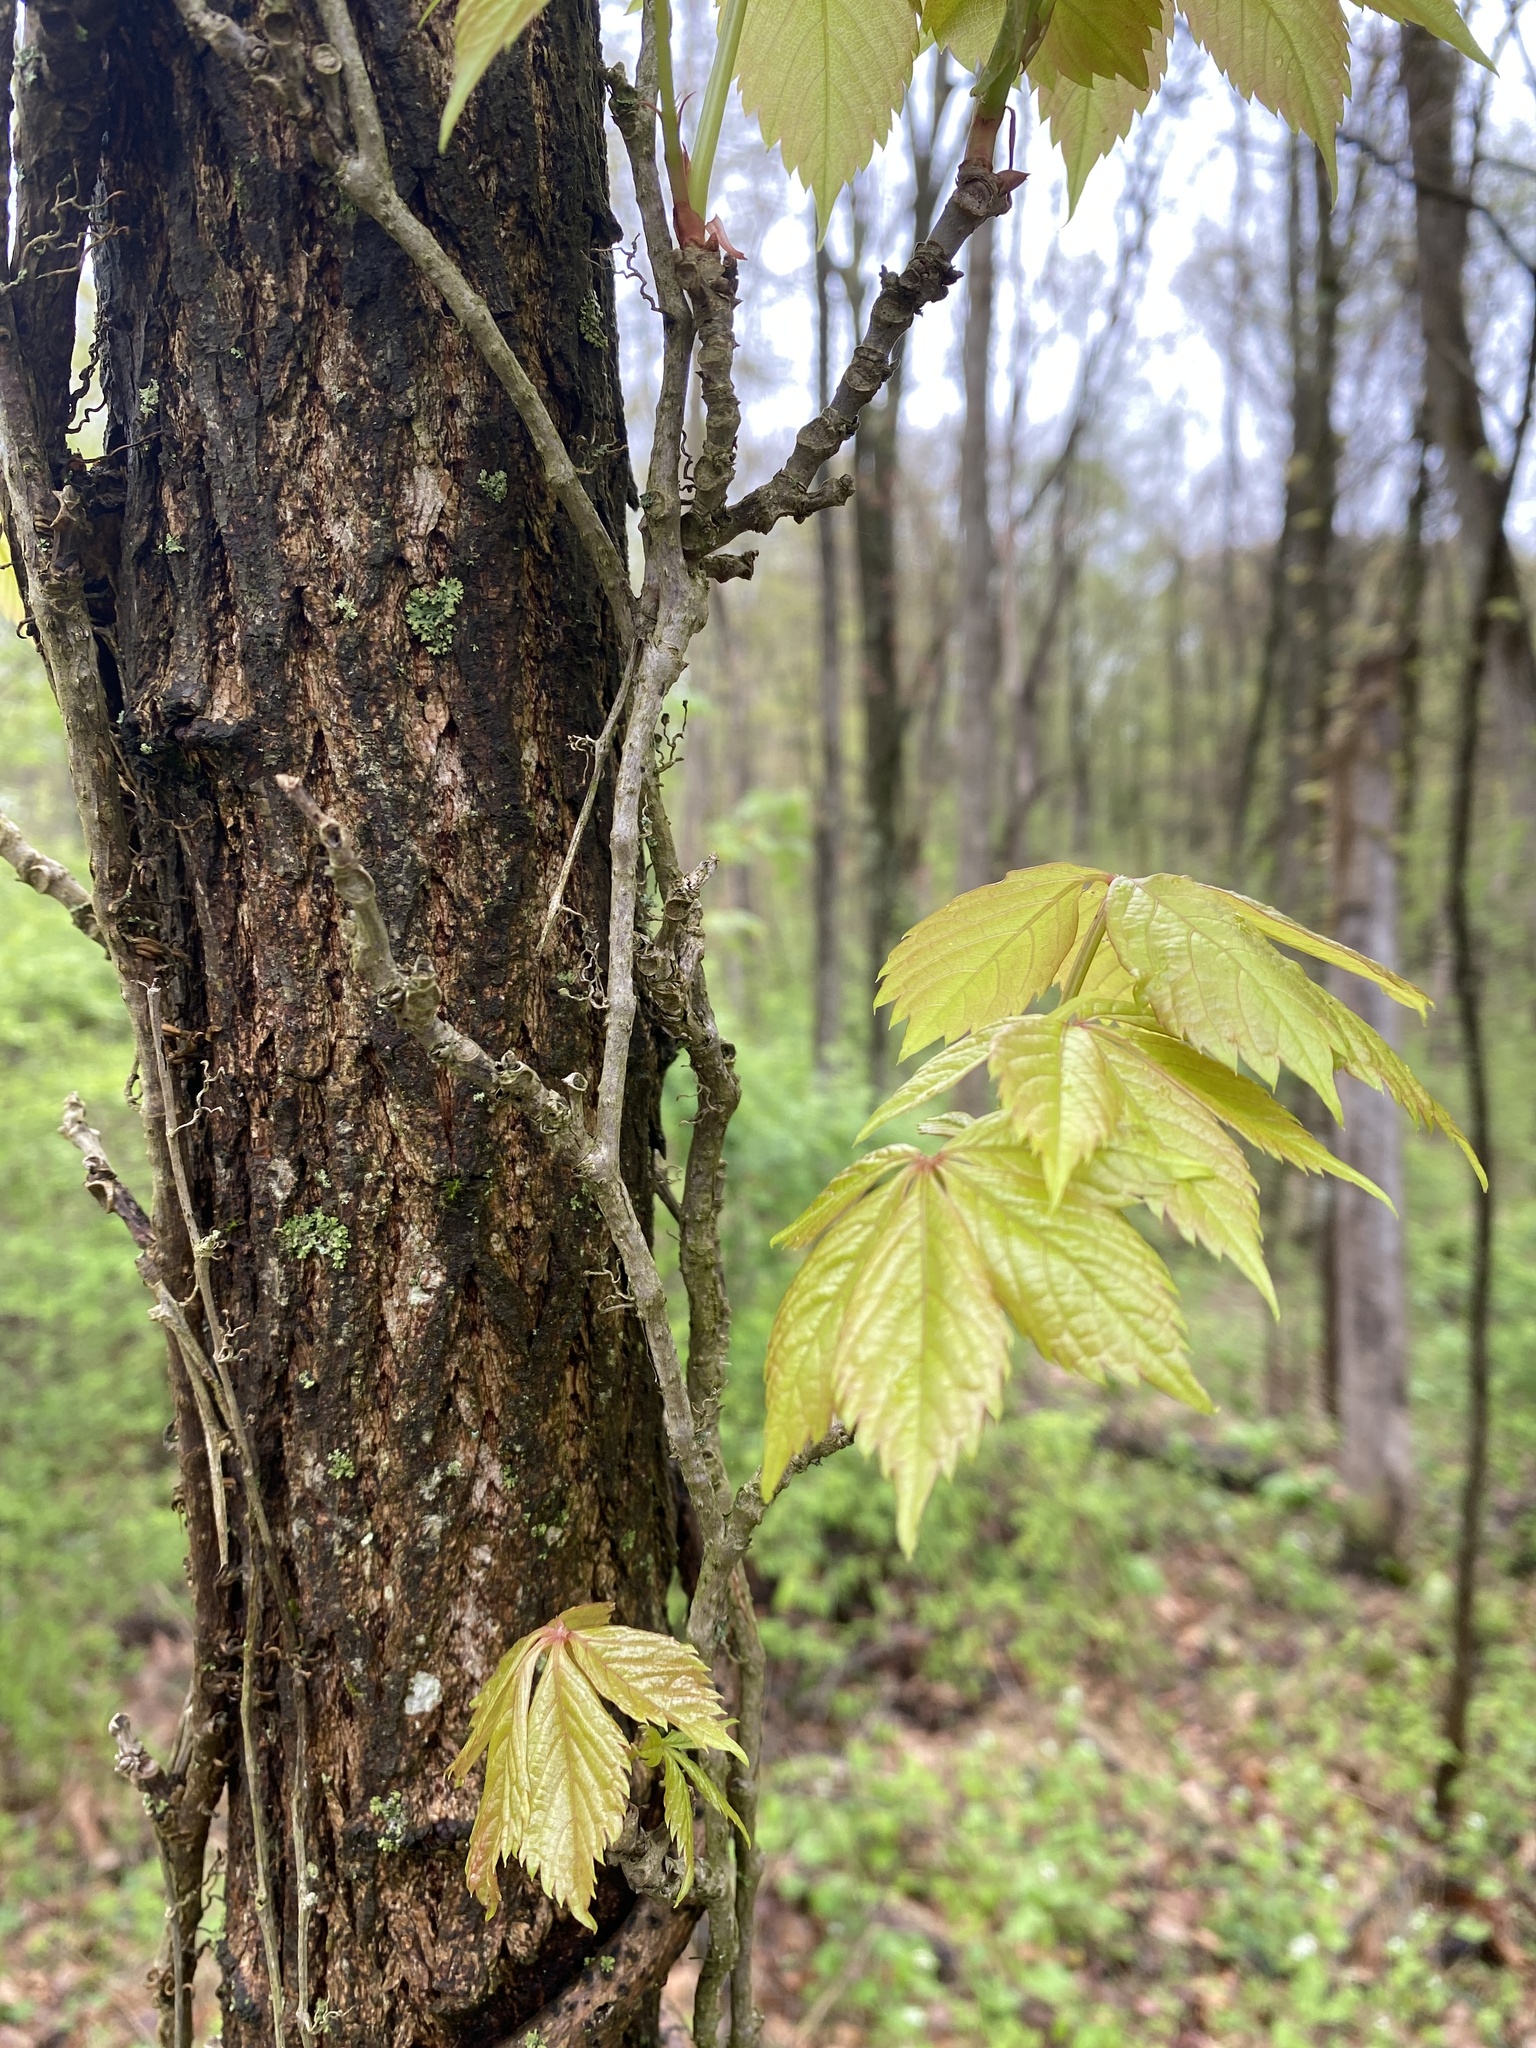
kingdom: Plantae
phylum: Tracheophyta
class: Magnoliopsida
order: Vitales
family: Vitaceae
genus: Parthenocissus
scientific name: Parthenocissus quinquefolia
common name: Virginia-creeper
